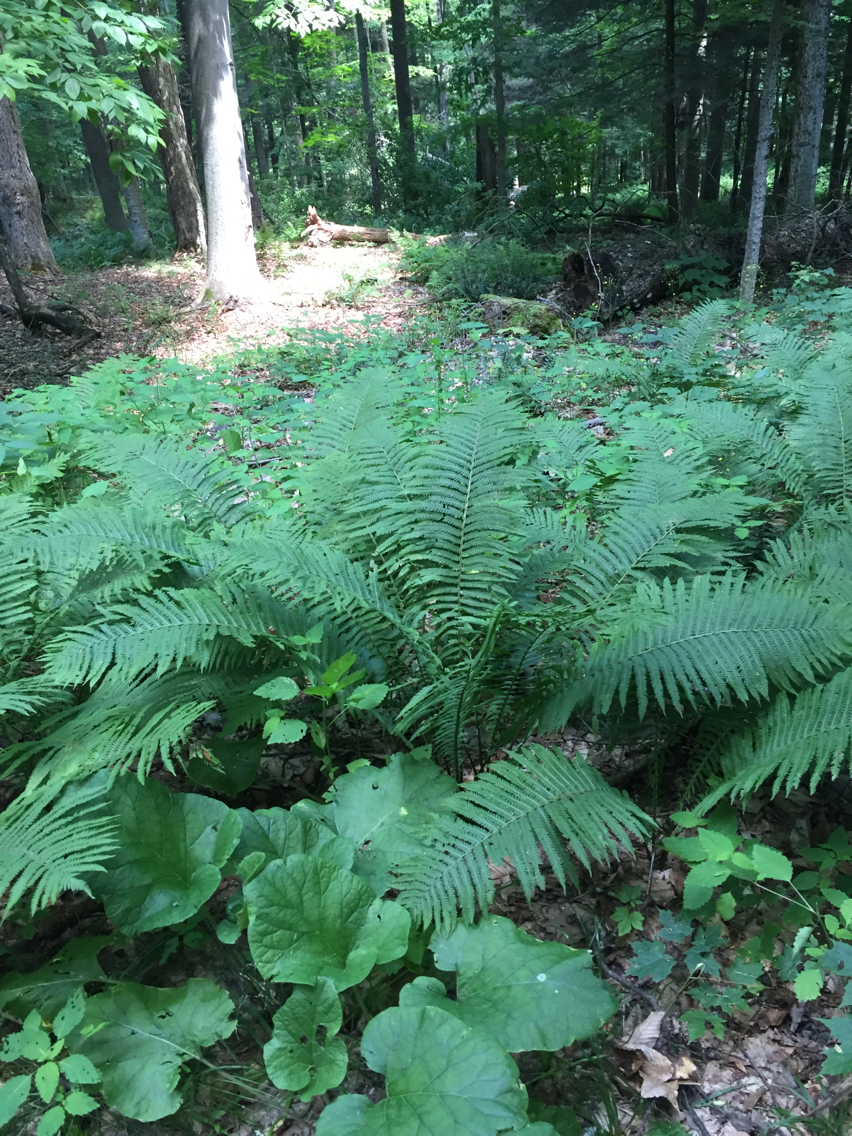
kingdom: Plantae
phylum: Tracheophyta
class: Polypodiopsida
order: Polypodiales
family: Onocleaceae
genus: Matteuccia
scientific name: Matteuccia struthiopteris
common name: Ostrich fern
